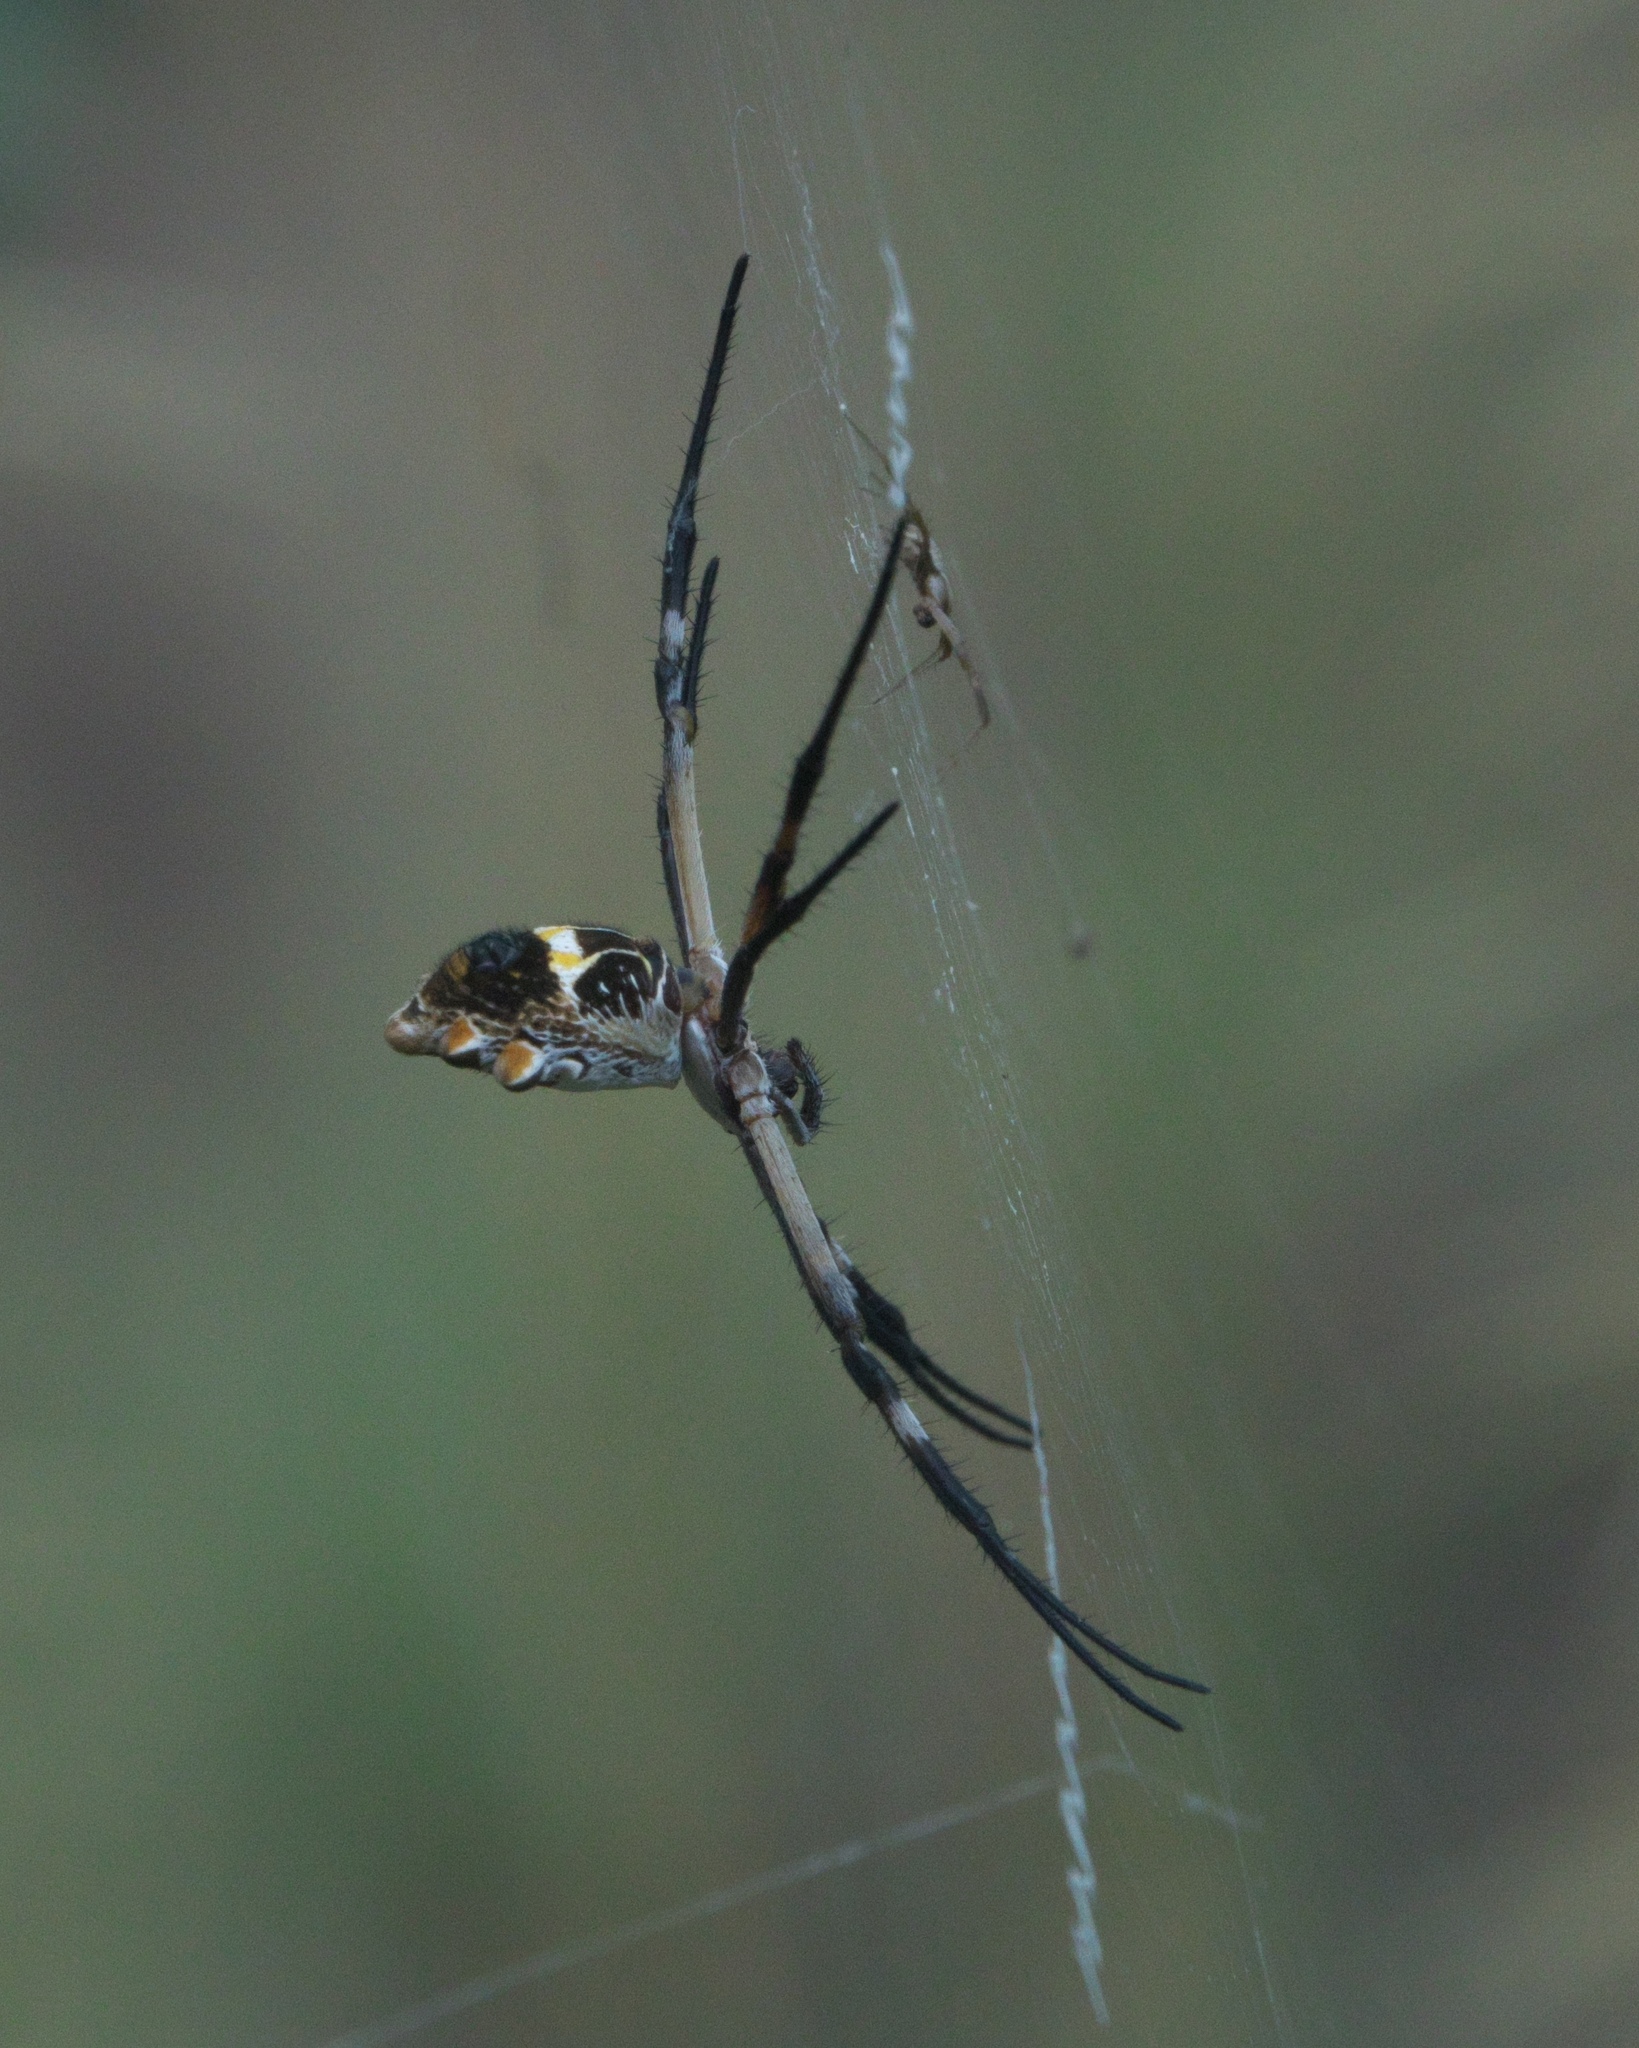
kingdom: Animalia
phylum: Arthropoda
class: Arachnida
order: Araneae
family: Araneidae
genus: Argiope
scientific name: Argiope argentata
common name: Orb weavers
